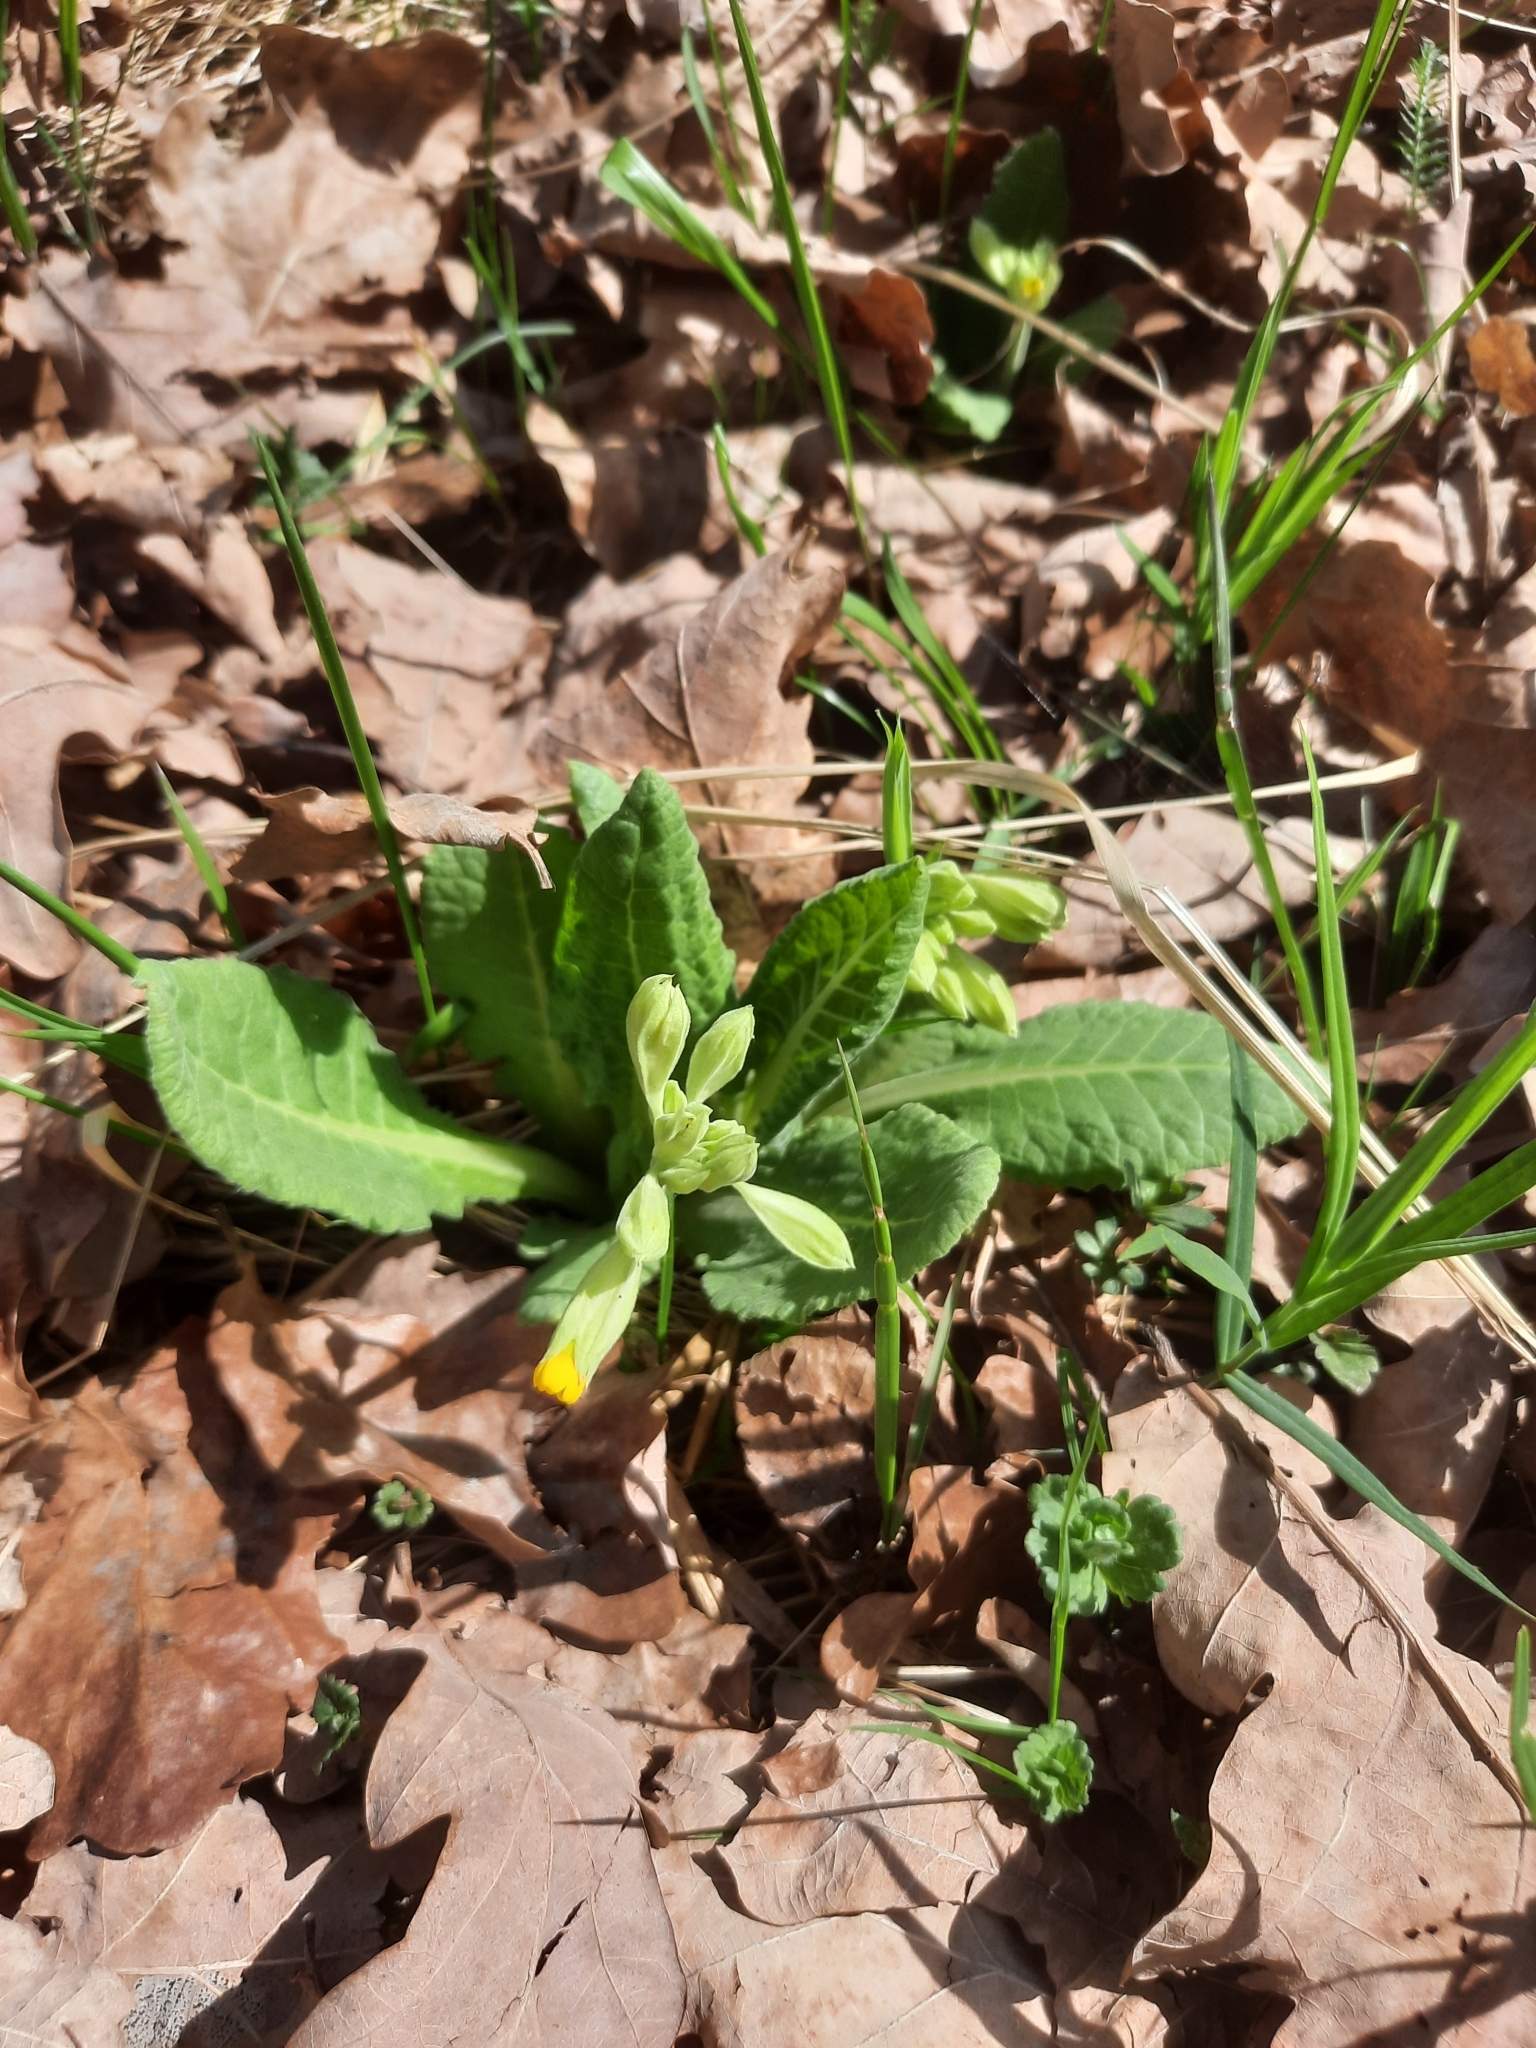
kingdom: Plantae
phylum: Tracheophyta
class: Magnoliopsida
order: Ericales
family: Primulaceae
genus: Primula
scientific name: Primula veris
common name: Cowslip
